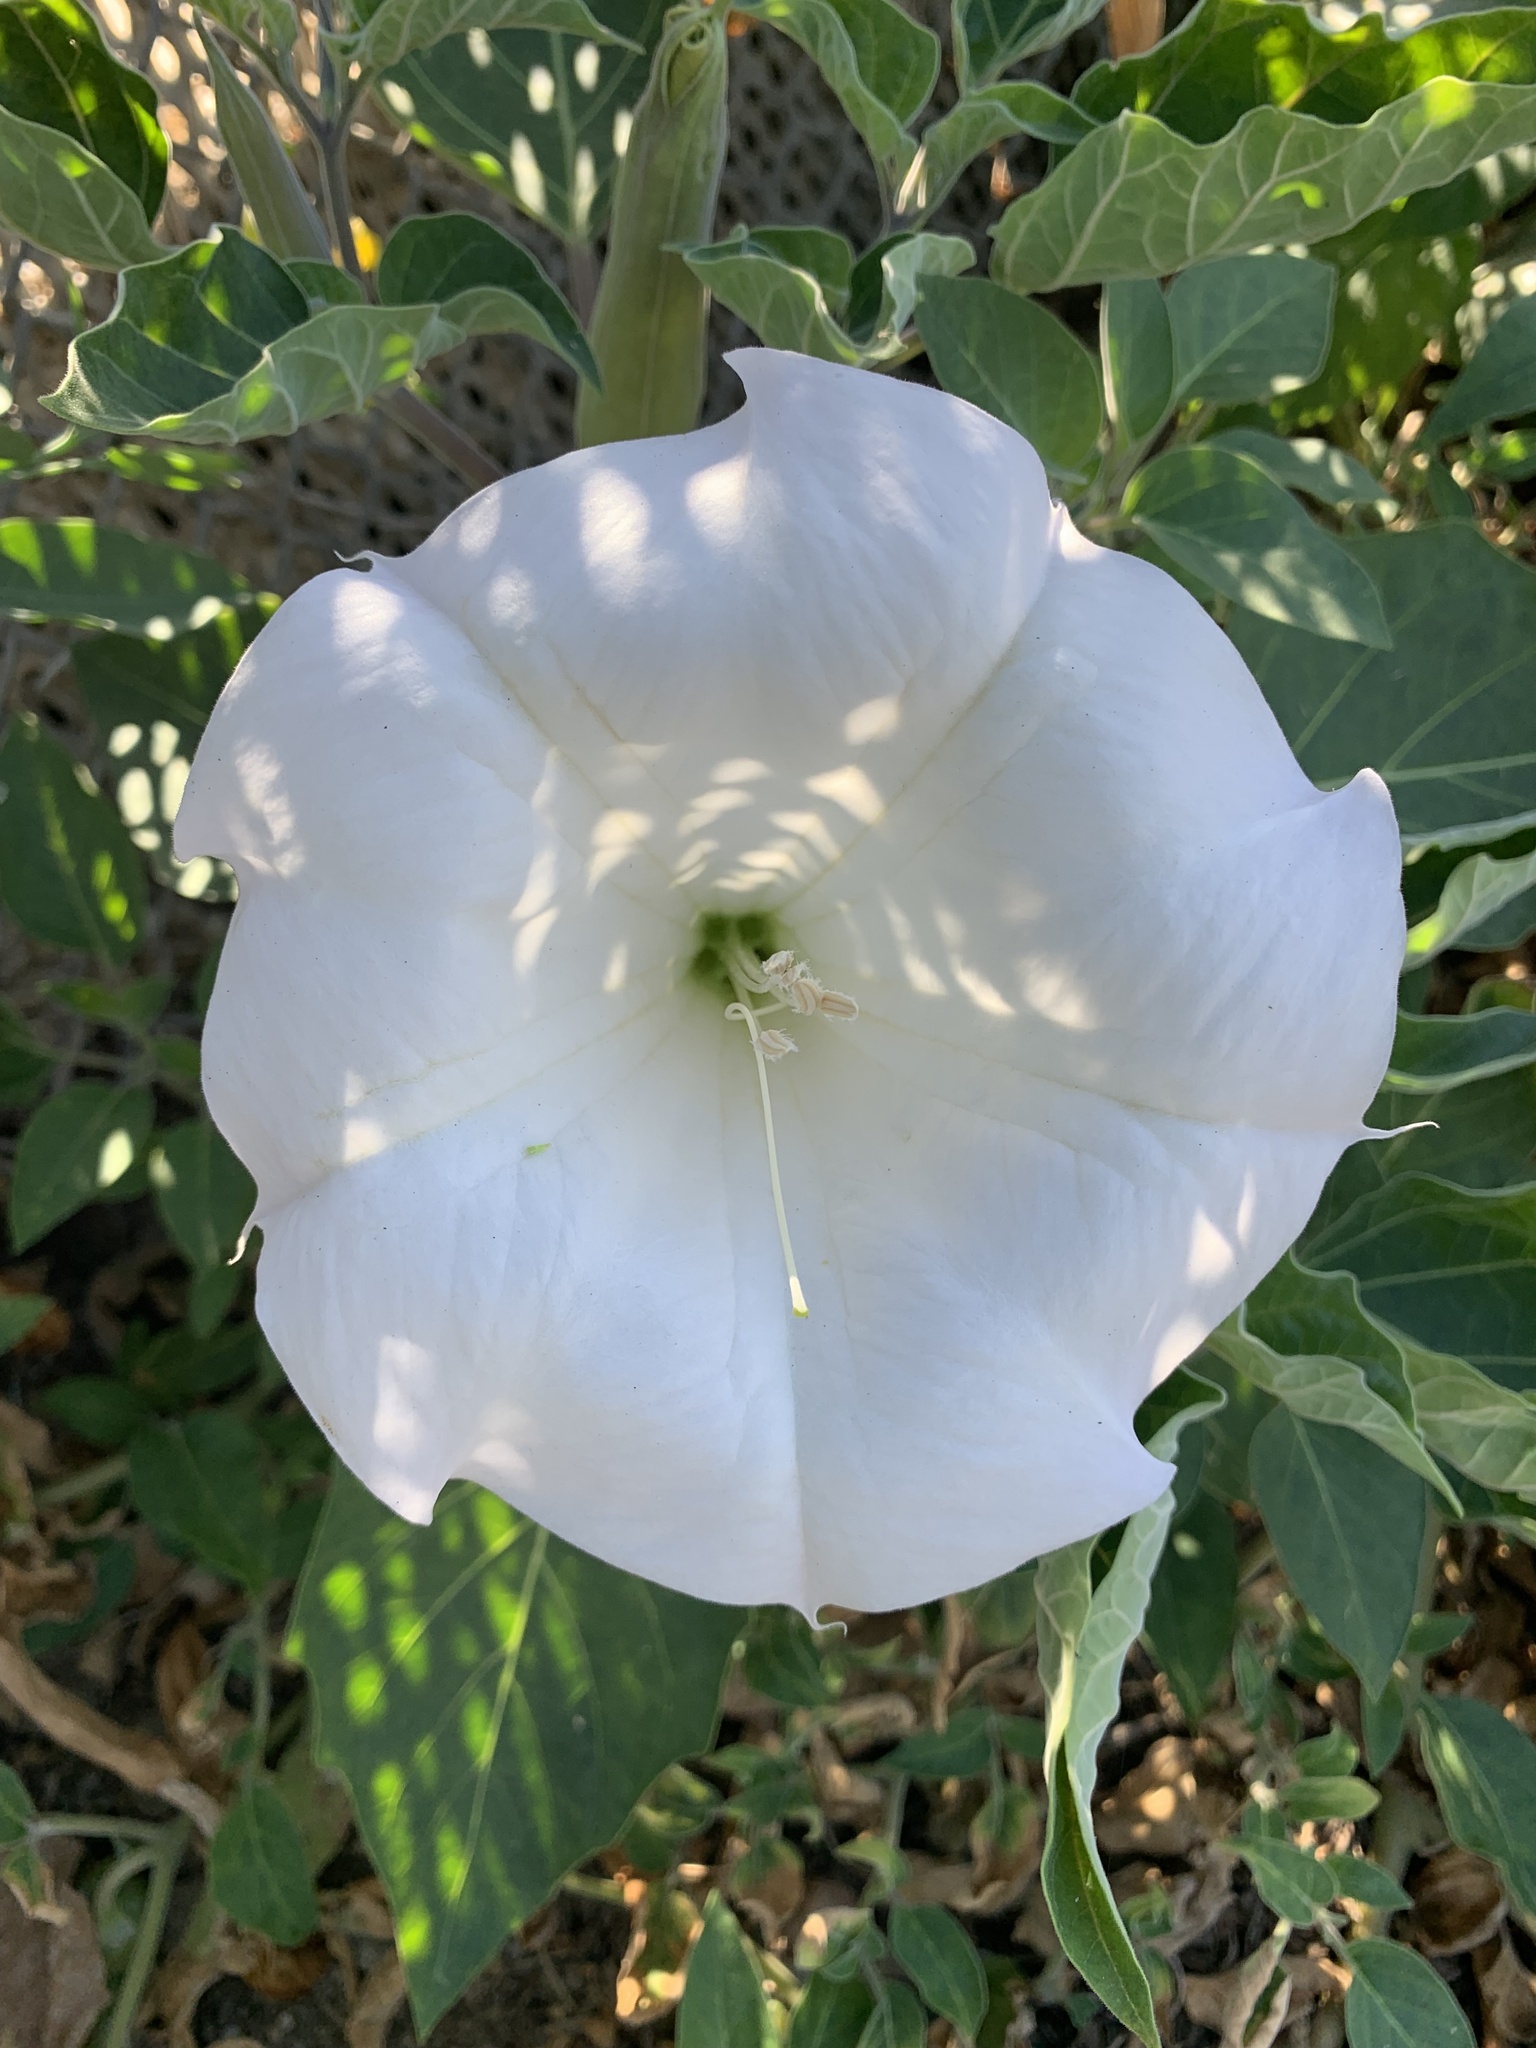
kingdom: Plantae
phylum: Tracheophyta
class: Magnoliopsida
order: Solanales
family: Solanaceae
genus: Datura
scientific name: Datura wrightii
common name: Sacred thorn-apple
